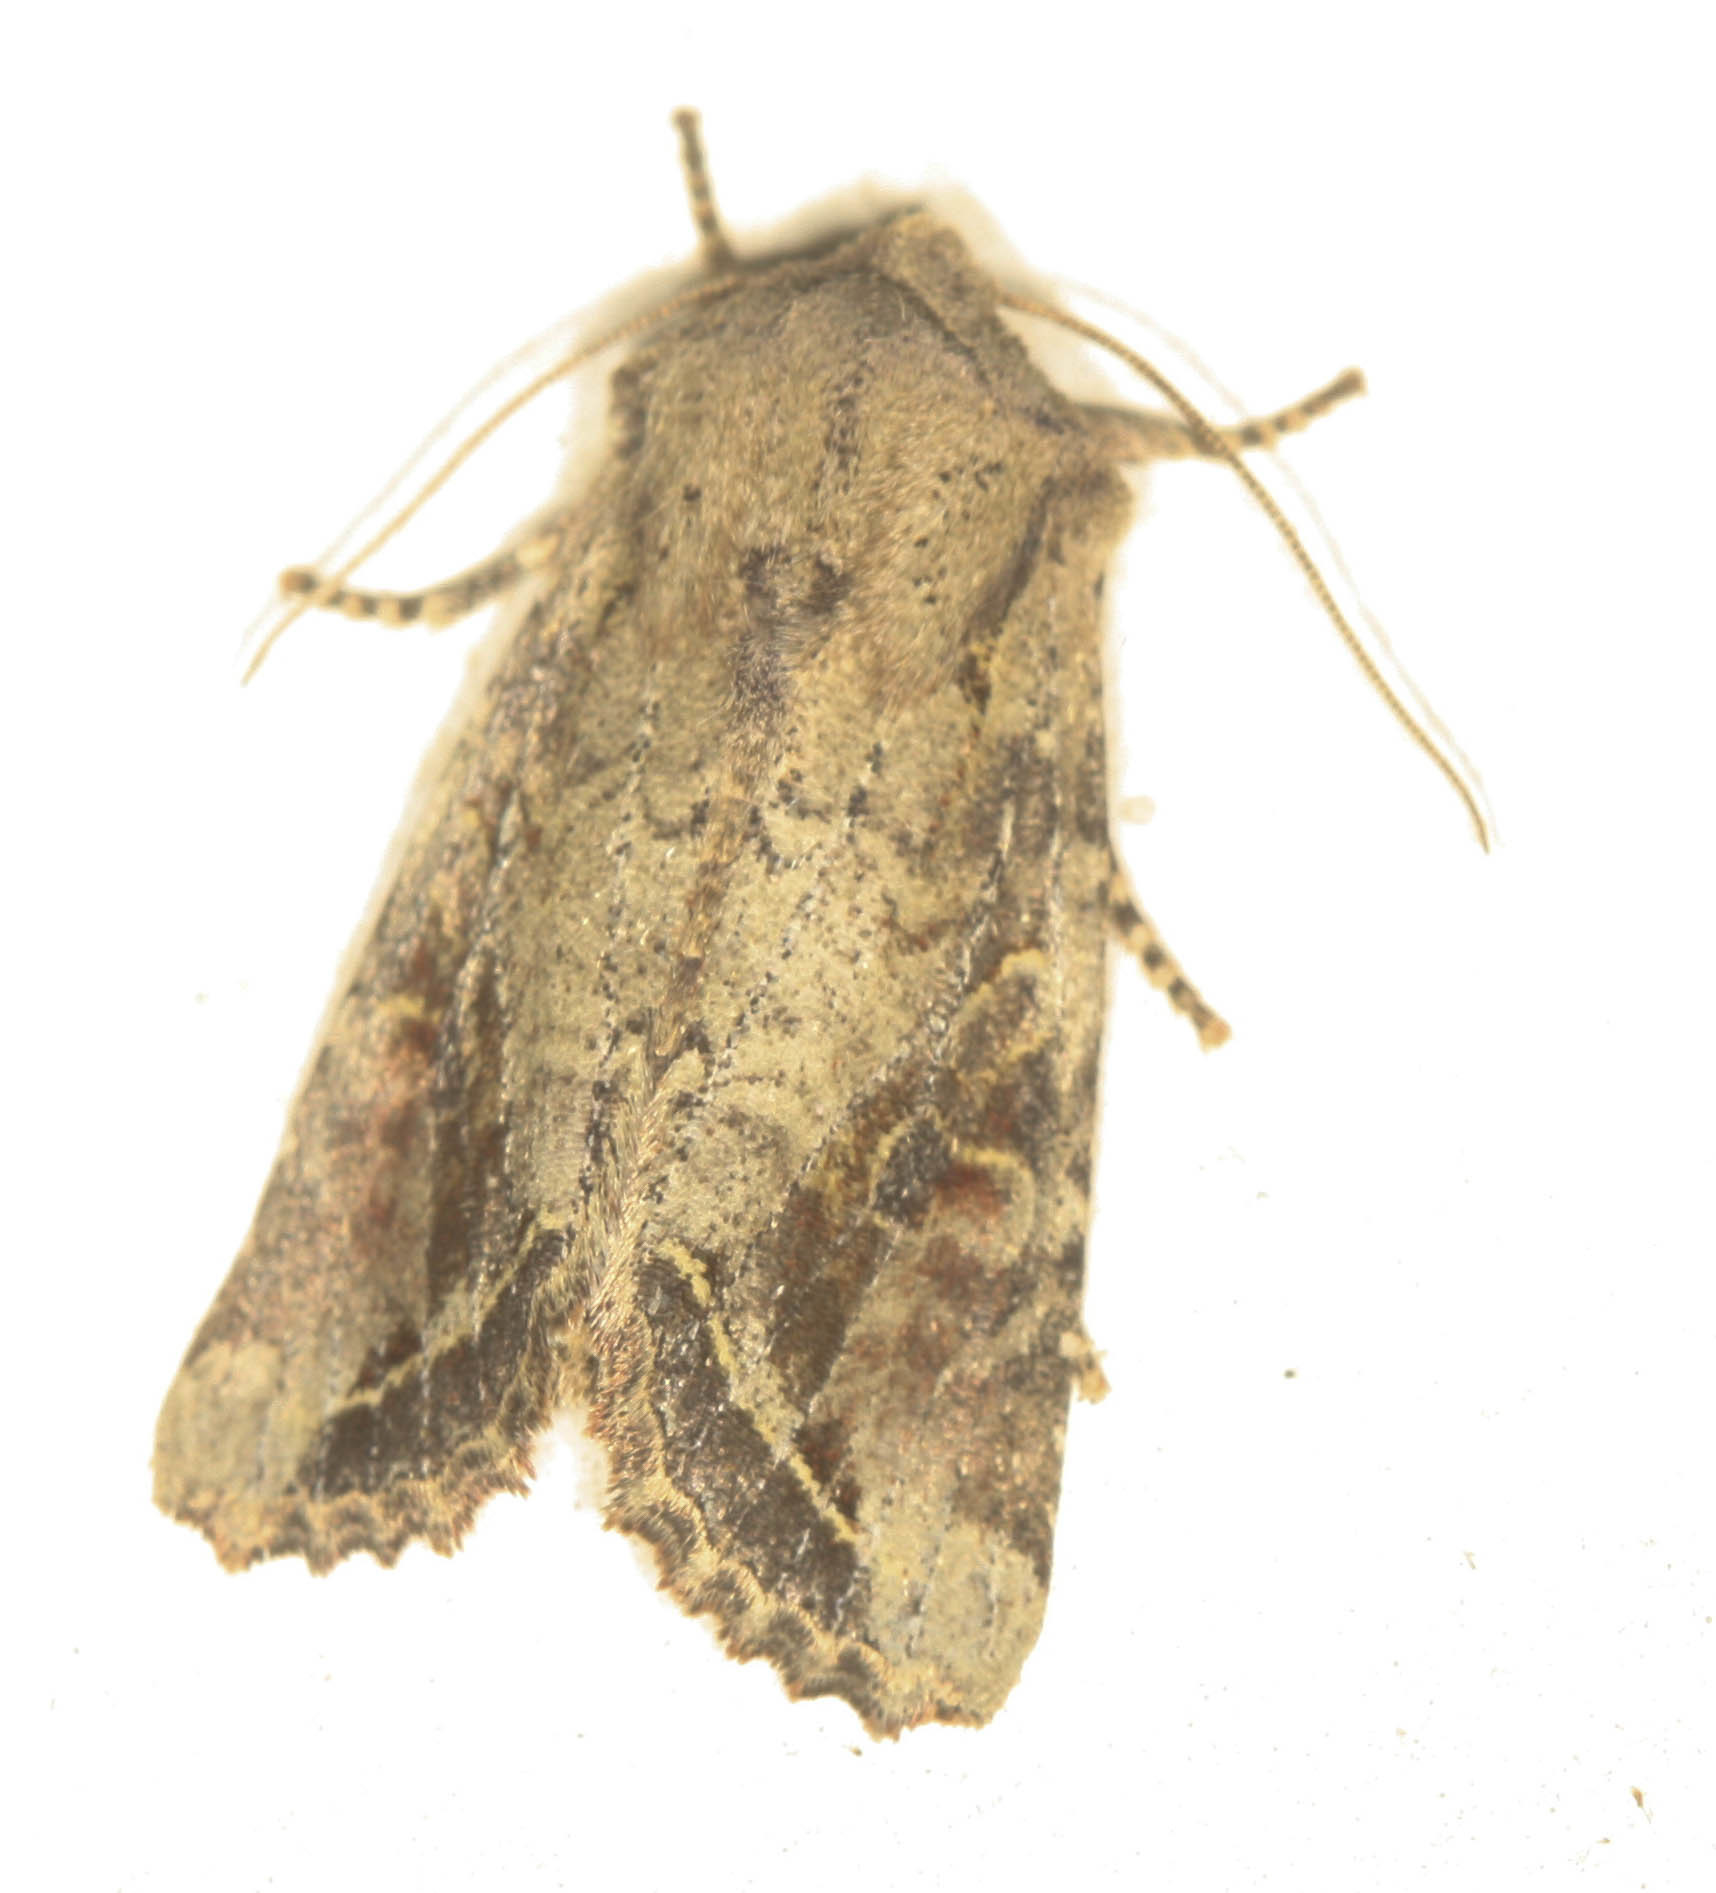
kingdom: Animalia
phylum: Arthropoda
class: Insecta
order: Lepidoptera
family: Noctuidae
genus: Egira
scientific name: Egira rubrica
